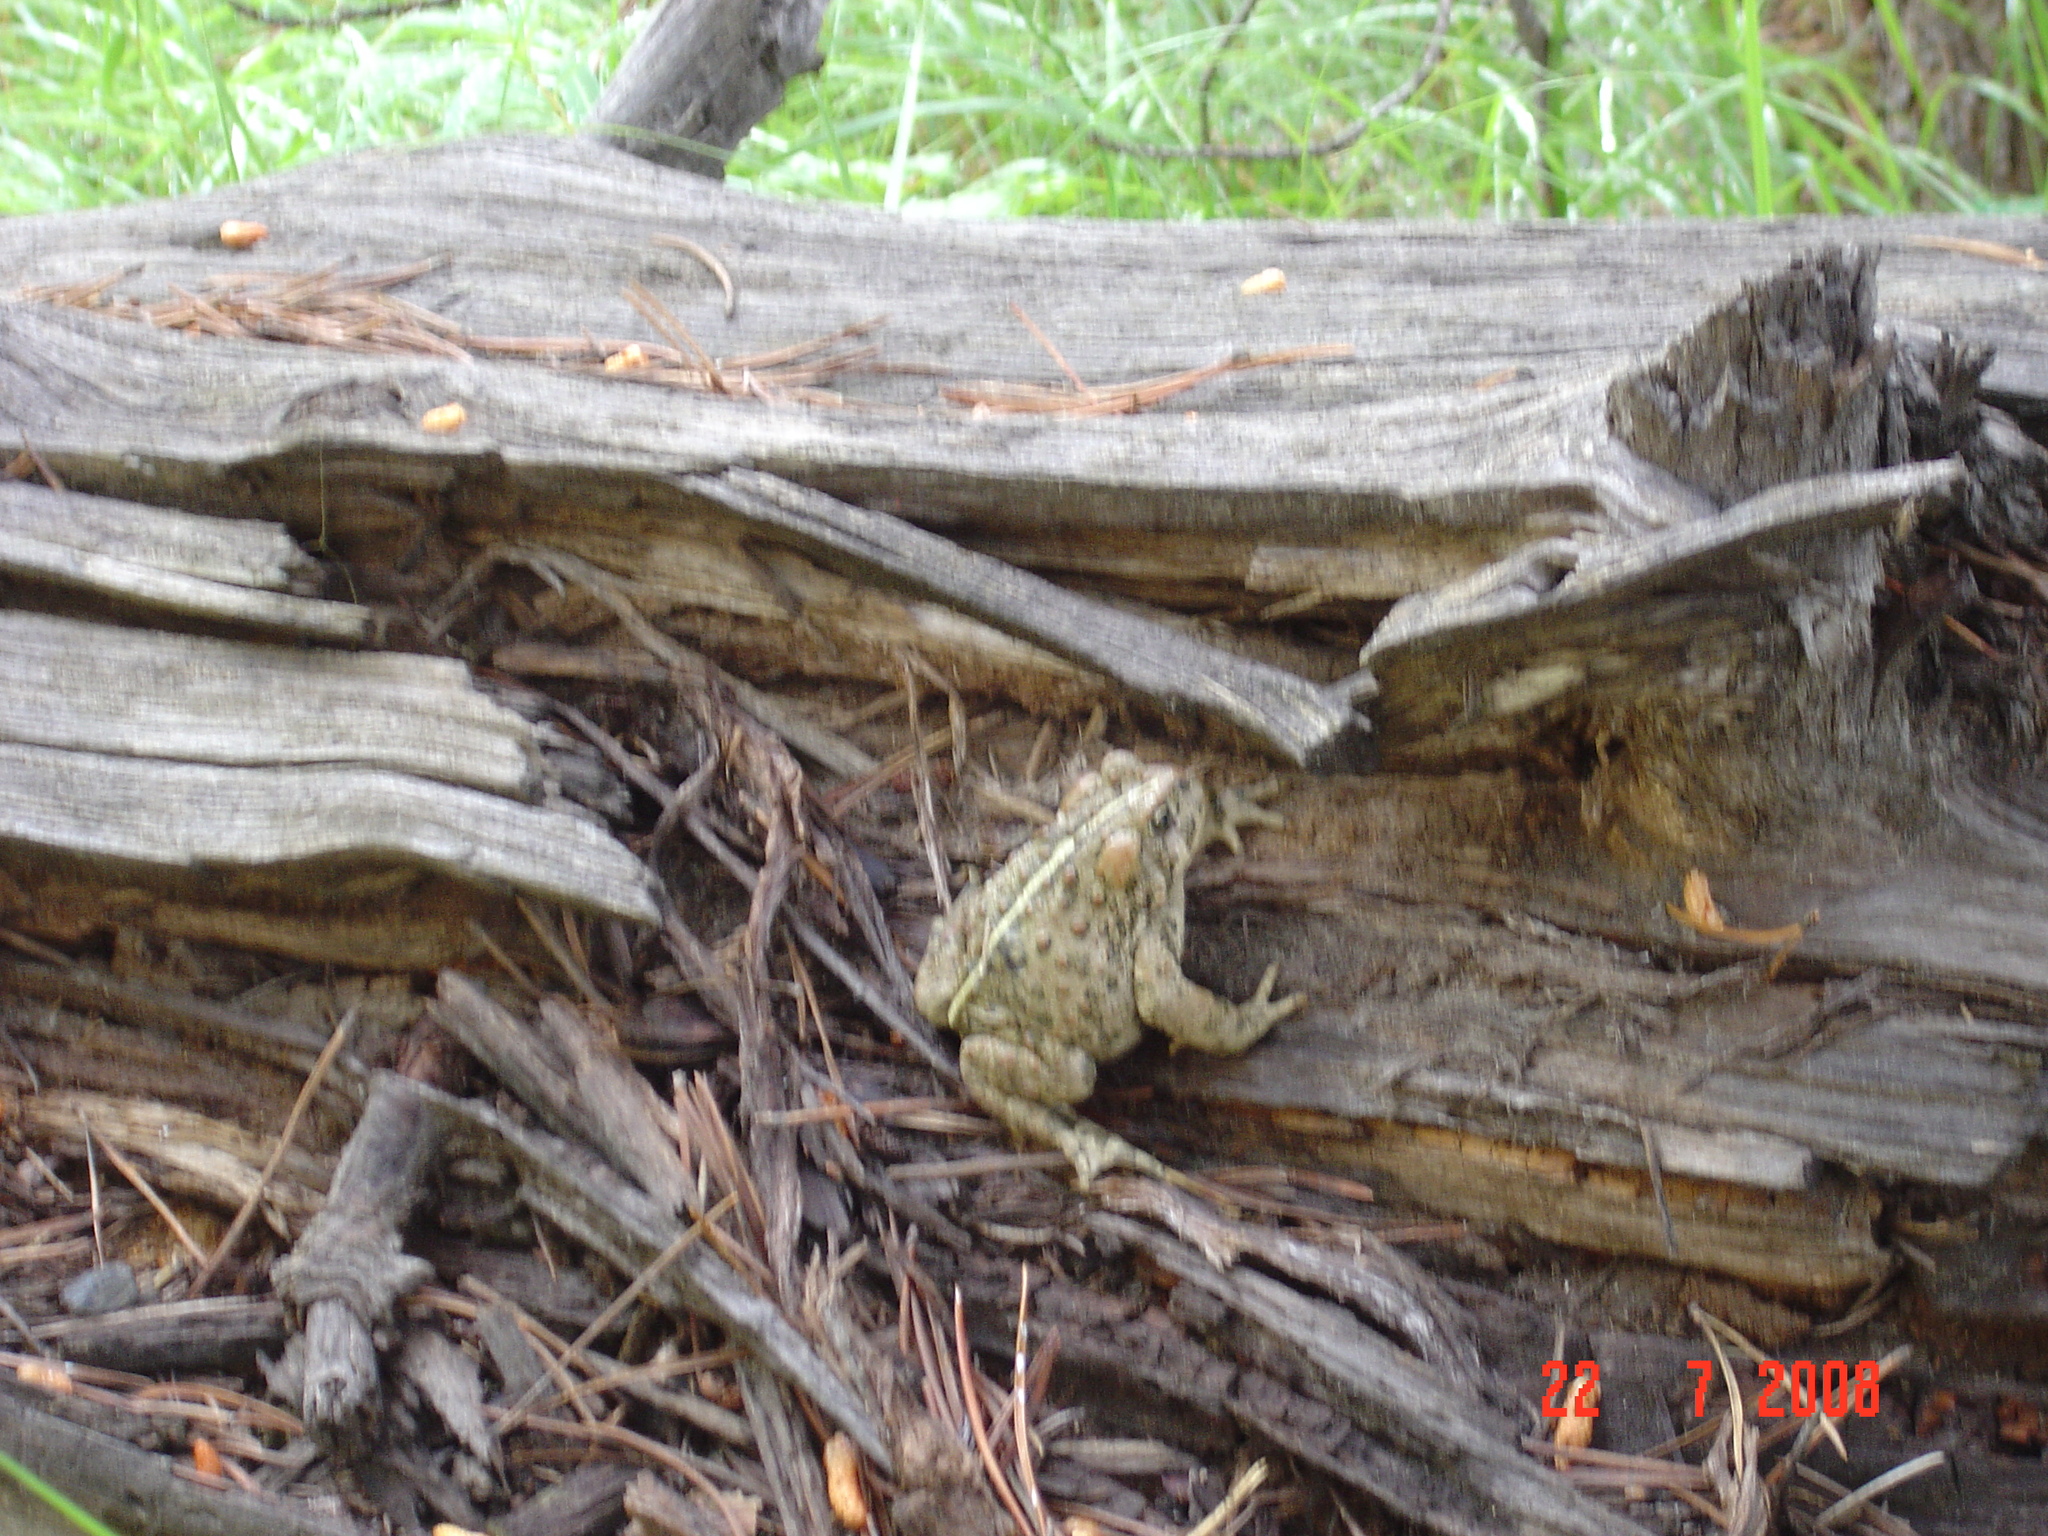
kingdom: Animalia
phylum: Chordata
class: Amphibia
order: Anura
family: Bufonidae
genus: Anaxyrus
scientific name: Anaxyrus boreas
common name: Western toad
